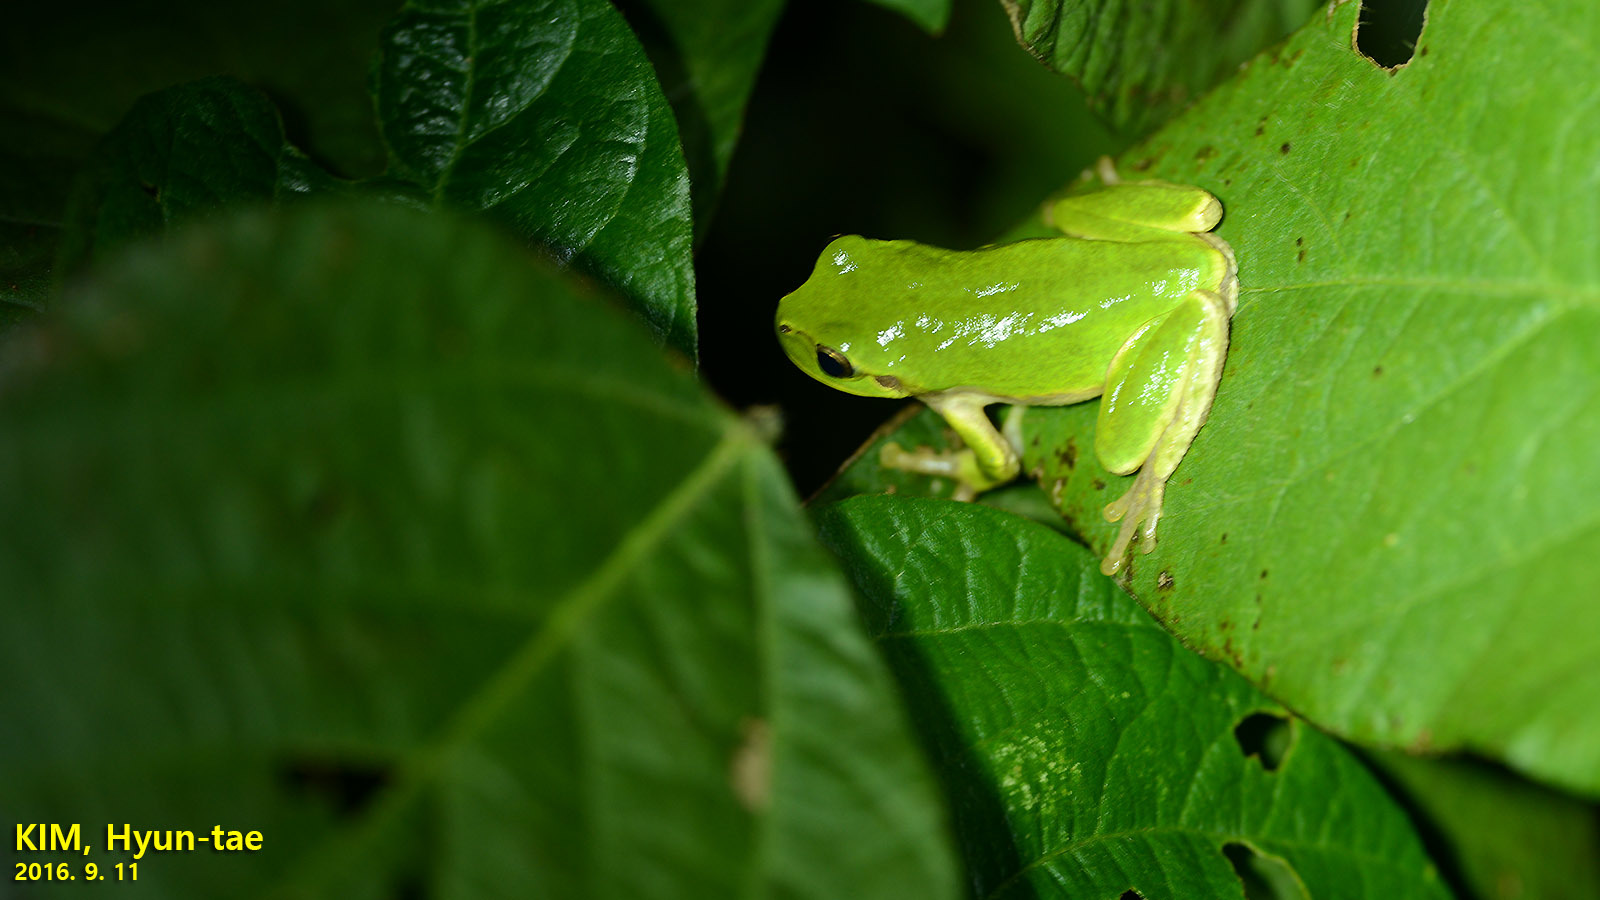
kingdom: Animalia
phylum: Chordata
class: Amphibia
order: Anura
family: Hylidae
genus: Dryophytes
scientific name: Dryophytes japonicus
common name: Japanese treefrog
